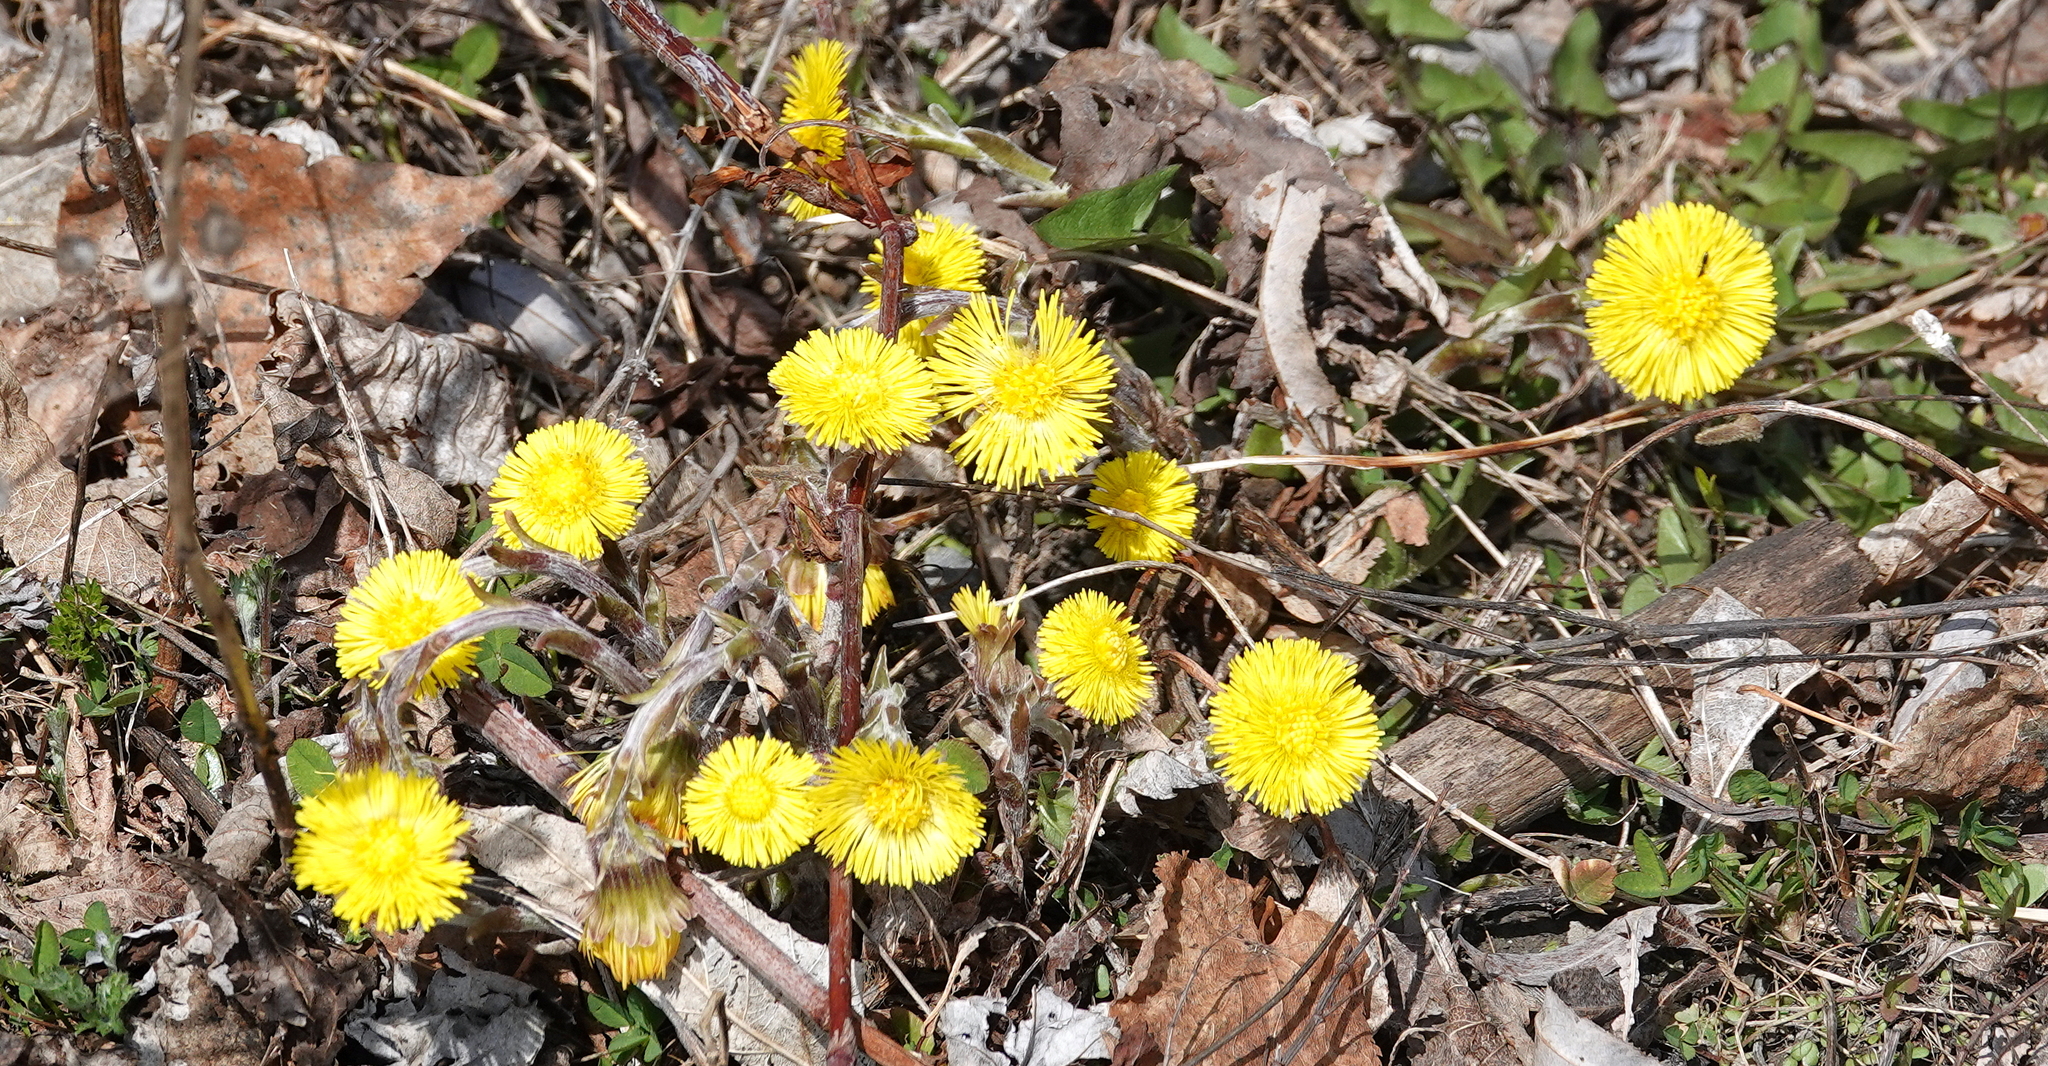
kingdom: Plantae
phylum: Tracheophyta
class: Magnoliopsida
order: Asterales
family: Asteraceae
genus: Tussilago
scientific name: Tussilago farfara
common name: Coltsfoot
